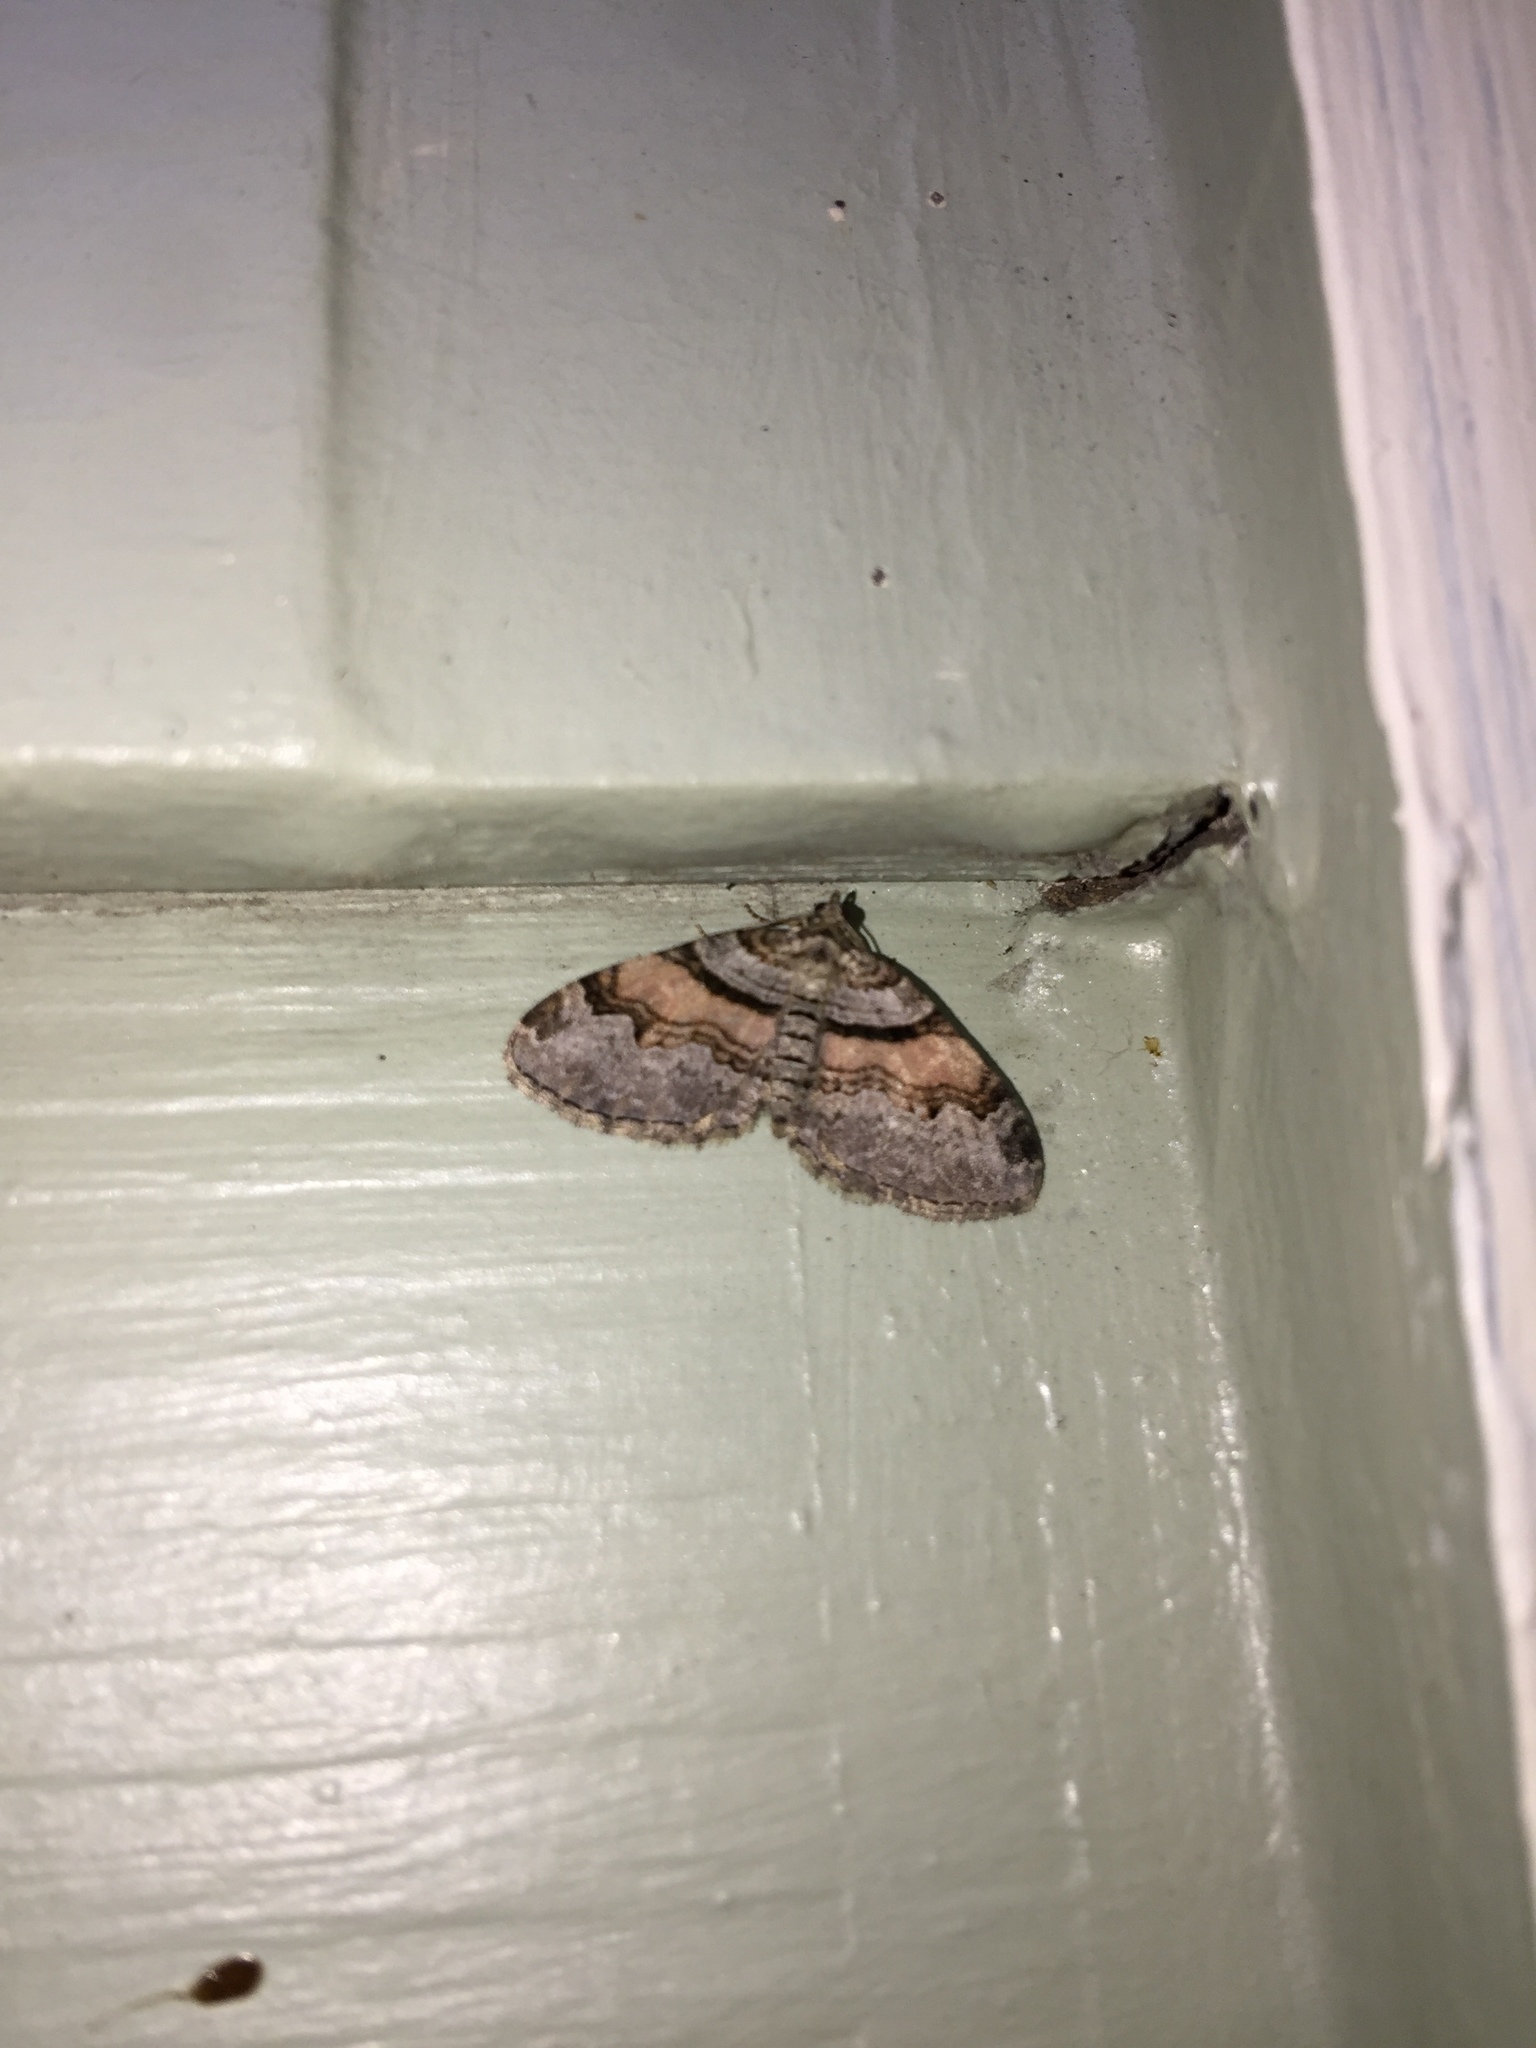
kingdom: Animalia
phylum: Arthropoda
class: Insecta
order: Lepidoptera
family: Geometridae
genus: Xanthorhoe
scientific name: Xanthorhoe labradorensis
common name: Labrador carpet
